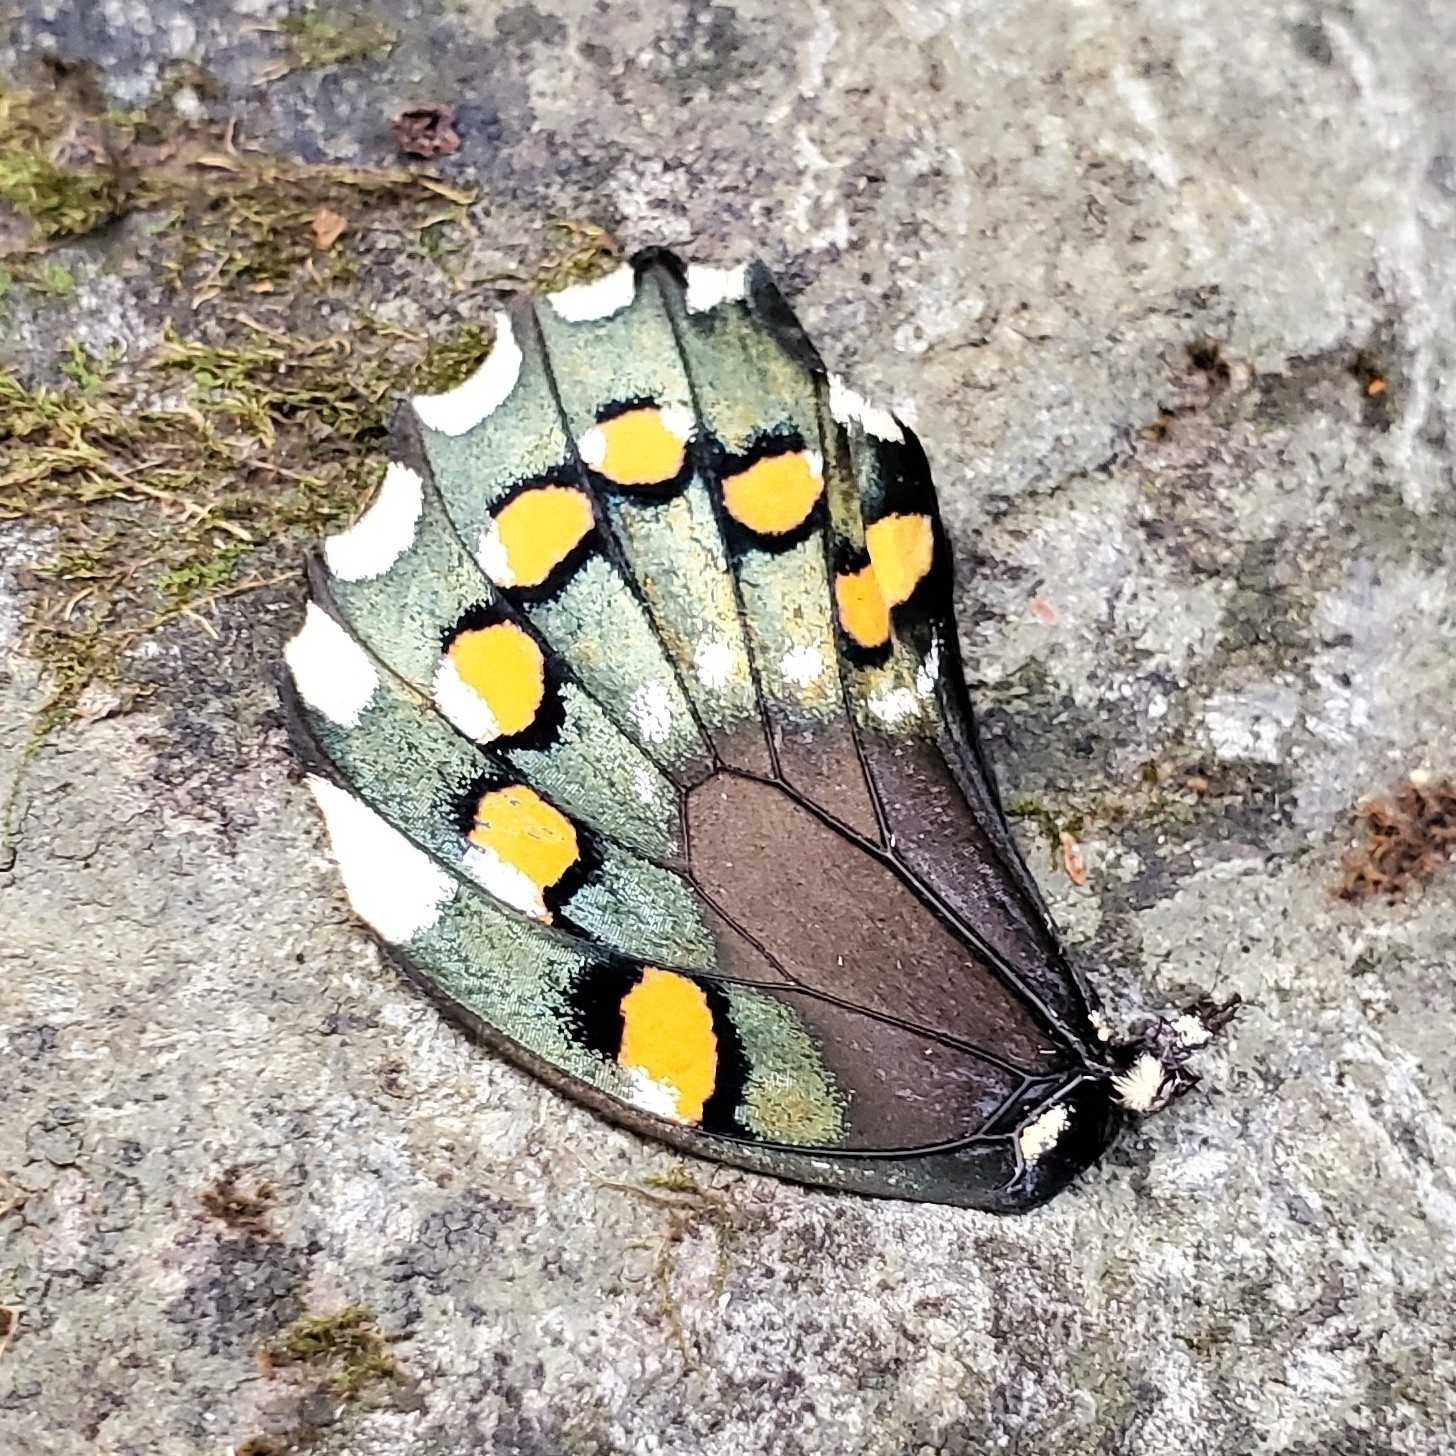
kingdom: Animalia
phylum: Arthropoda
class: Insecta
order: Lepidoptera
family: Papilionidae
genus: Battus
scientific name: Battus philenor
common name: Pipevine swallowtail
